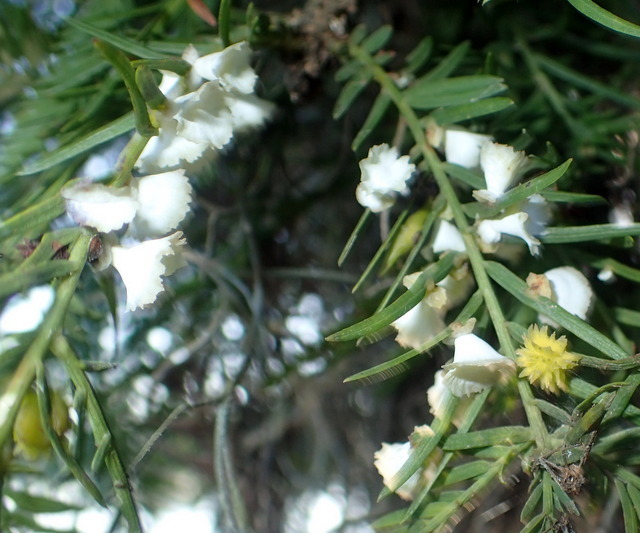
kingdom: Animalia
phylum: Arthropoda
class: Insecta
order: Diptera
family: Cecidomyiidae
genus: Taxodiomyia
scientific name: Taxodiomyia cupressi
